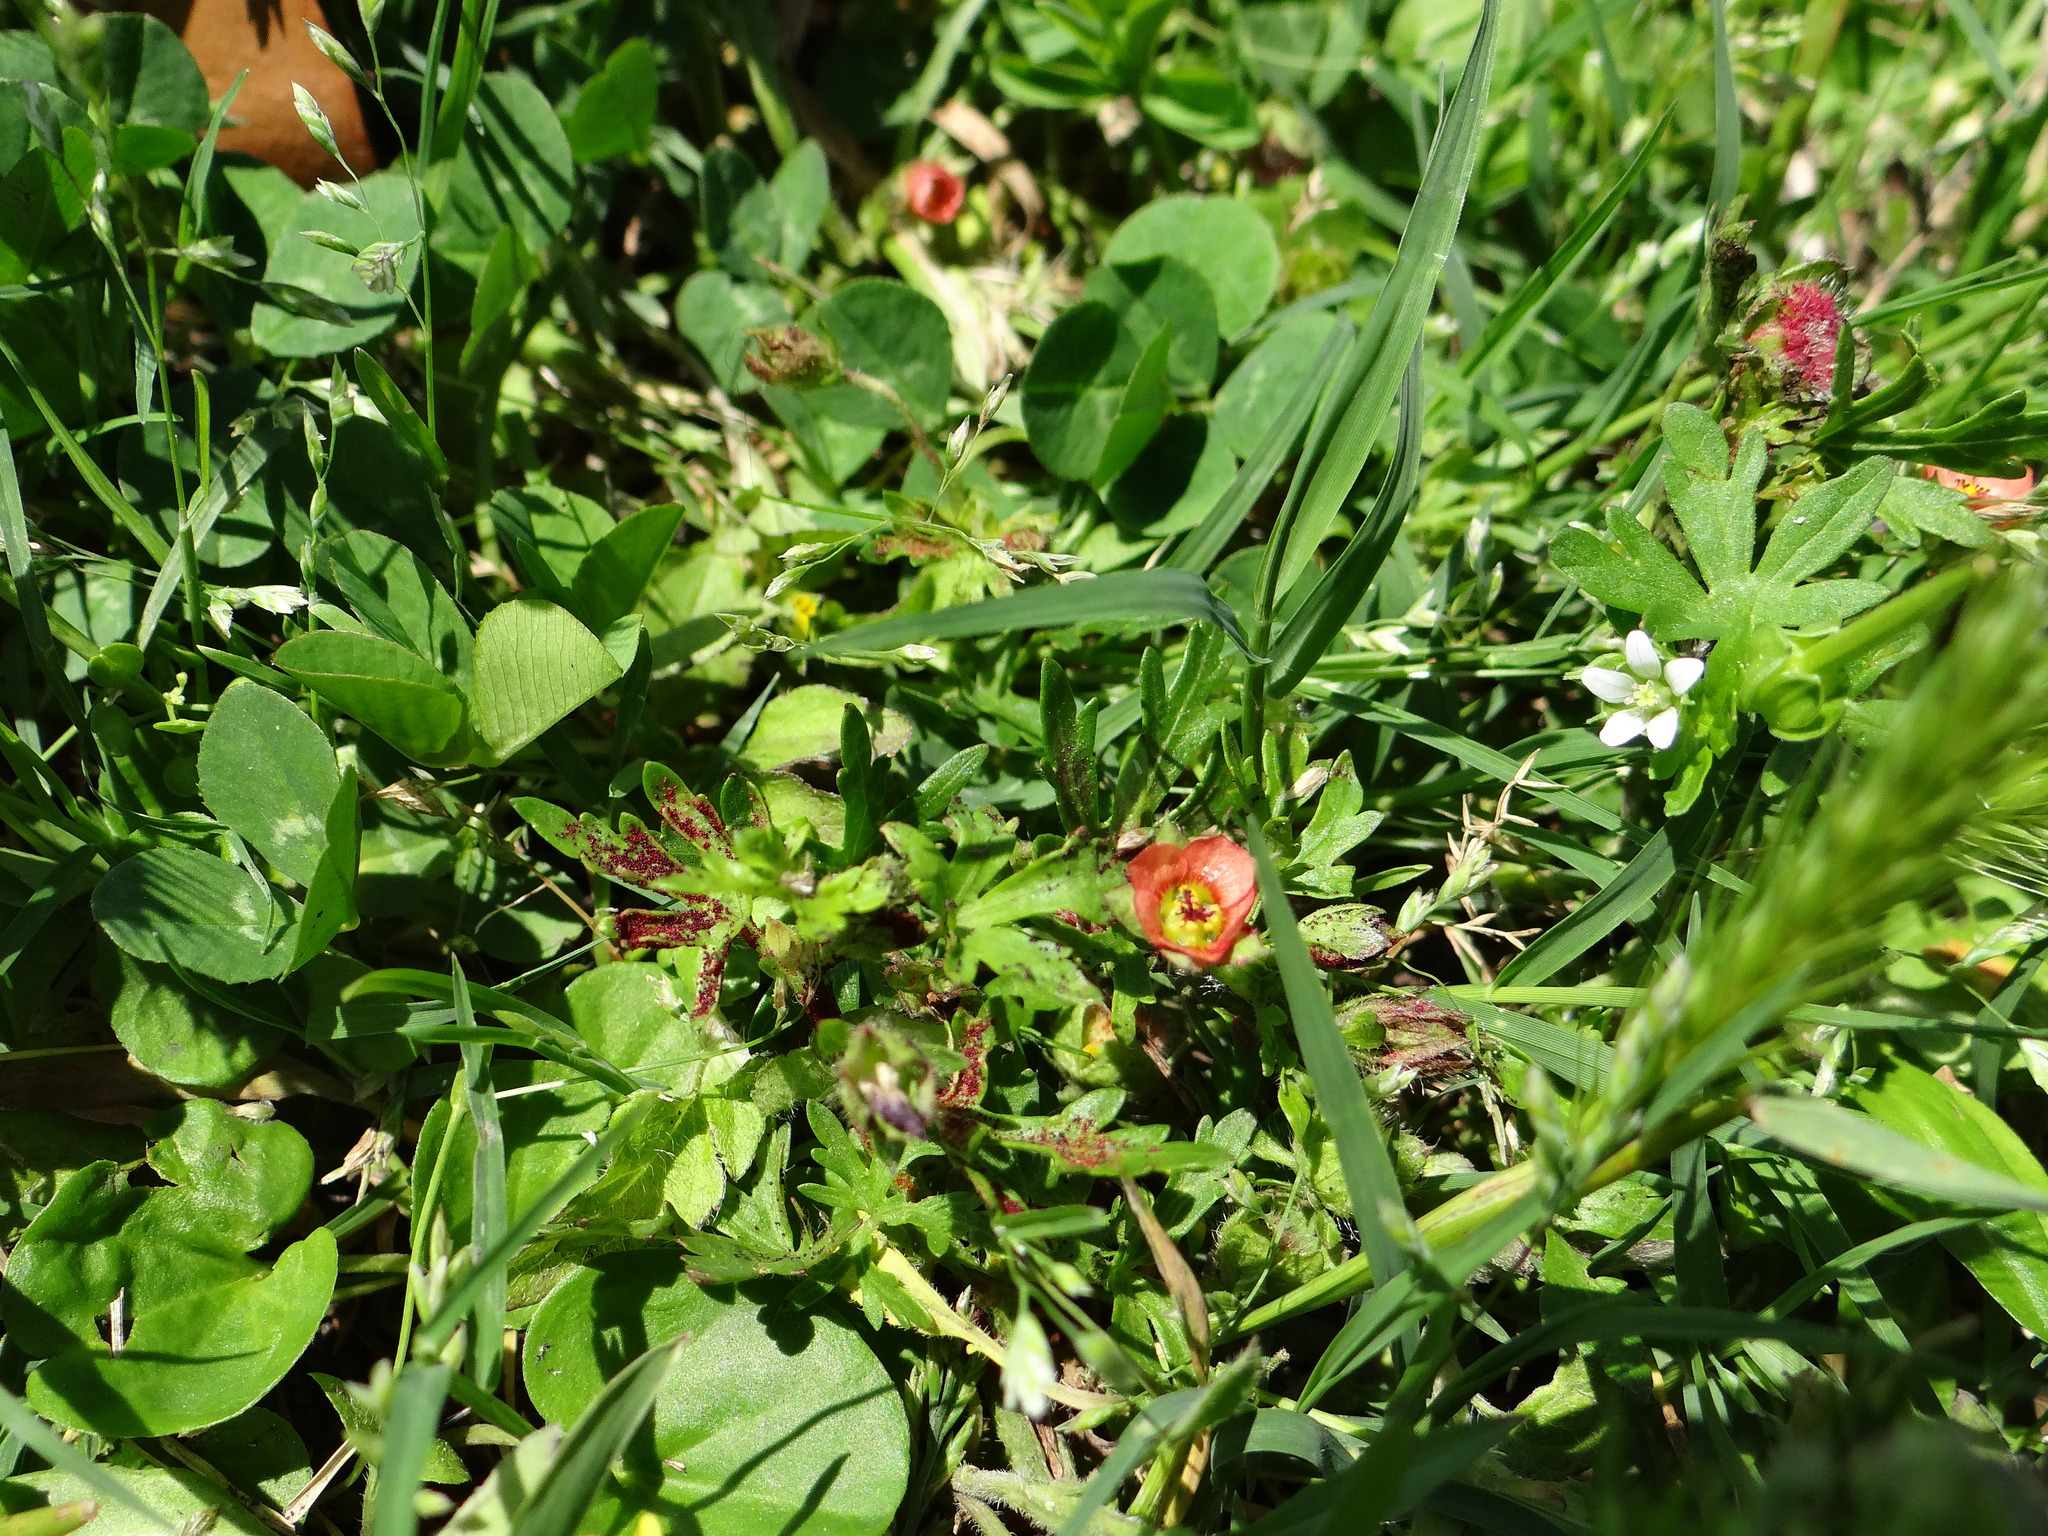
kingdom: Plantae
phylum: Tracheophyta
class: Magnoliopsida
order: Malvales
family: Malvaceae
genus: Modiola
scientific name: Modiola caroliniana
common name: Carolina bristlemallow
